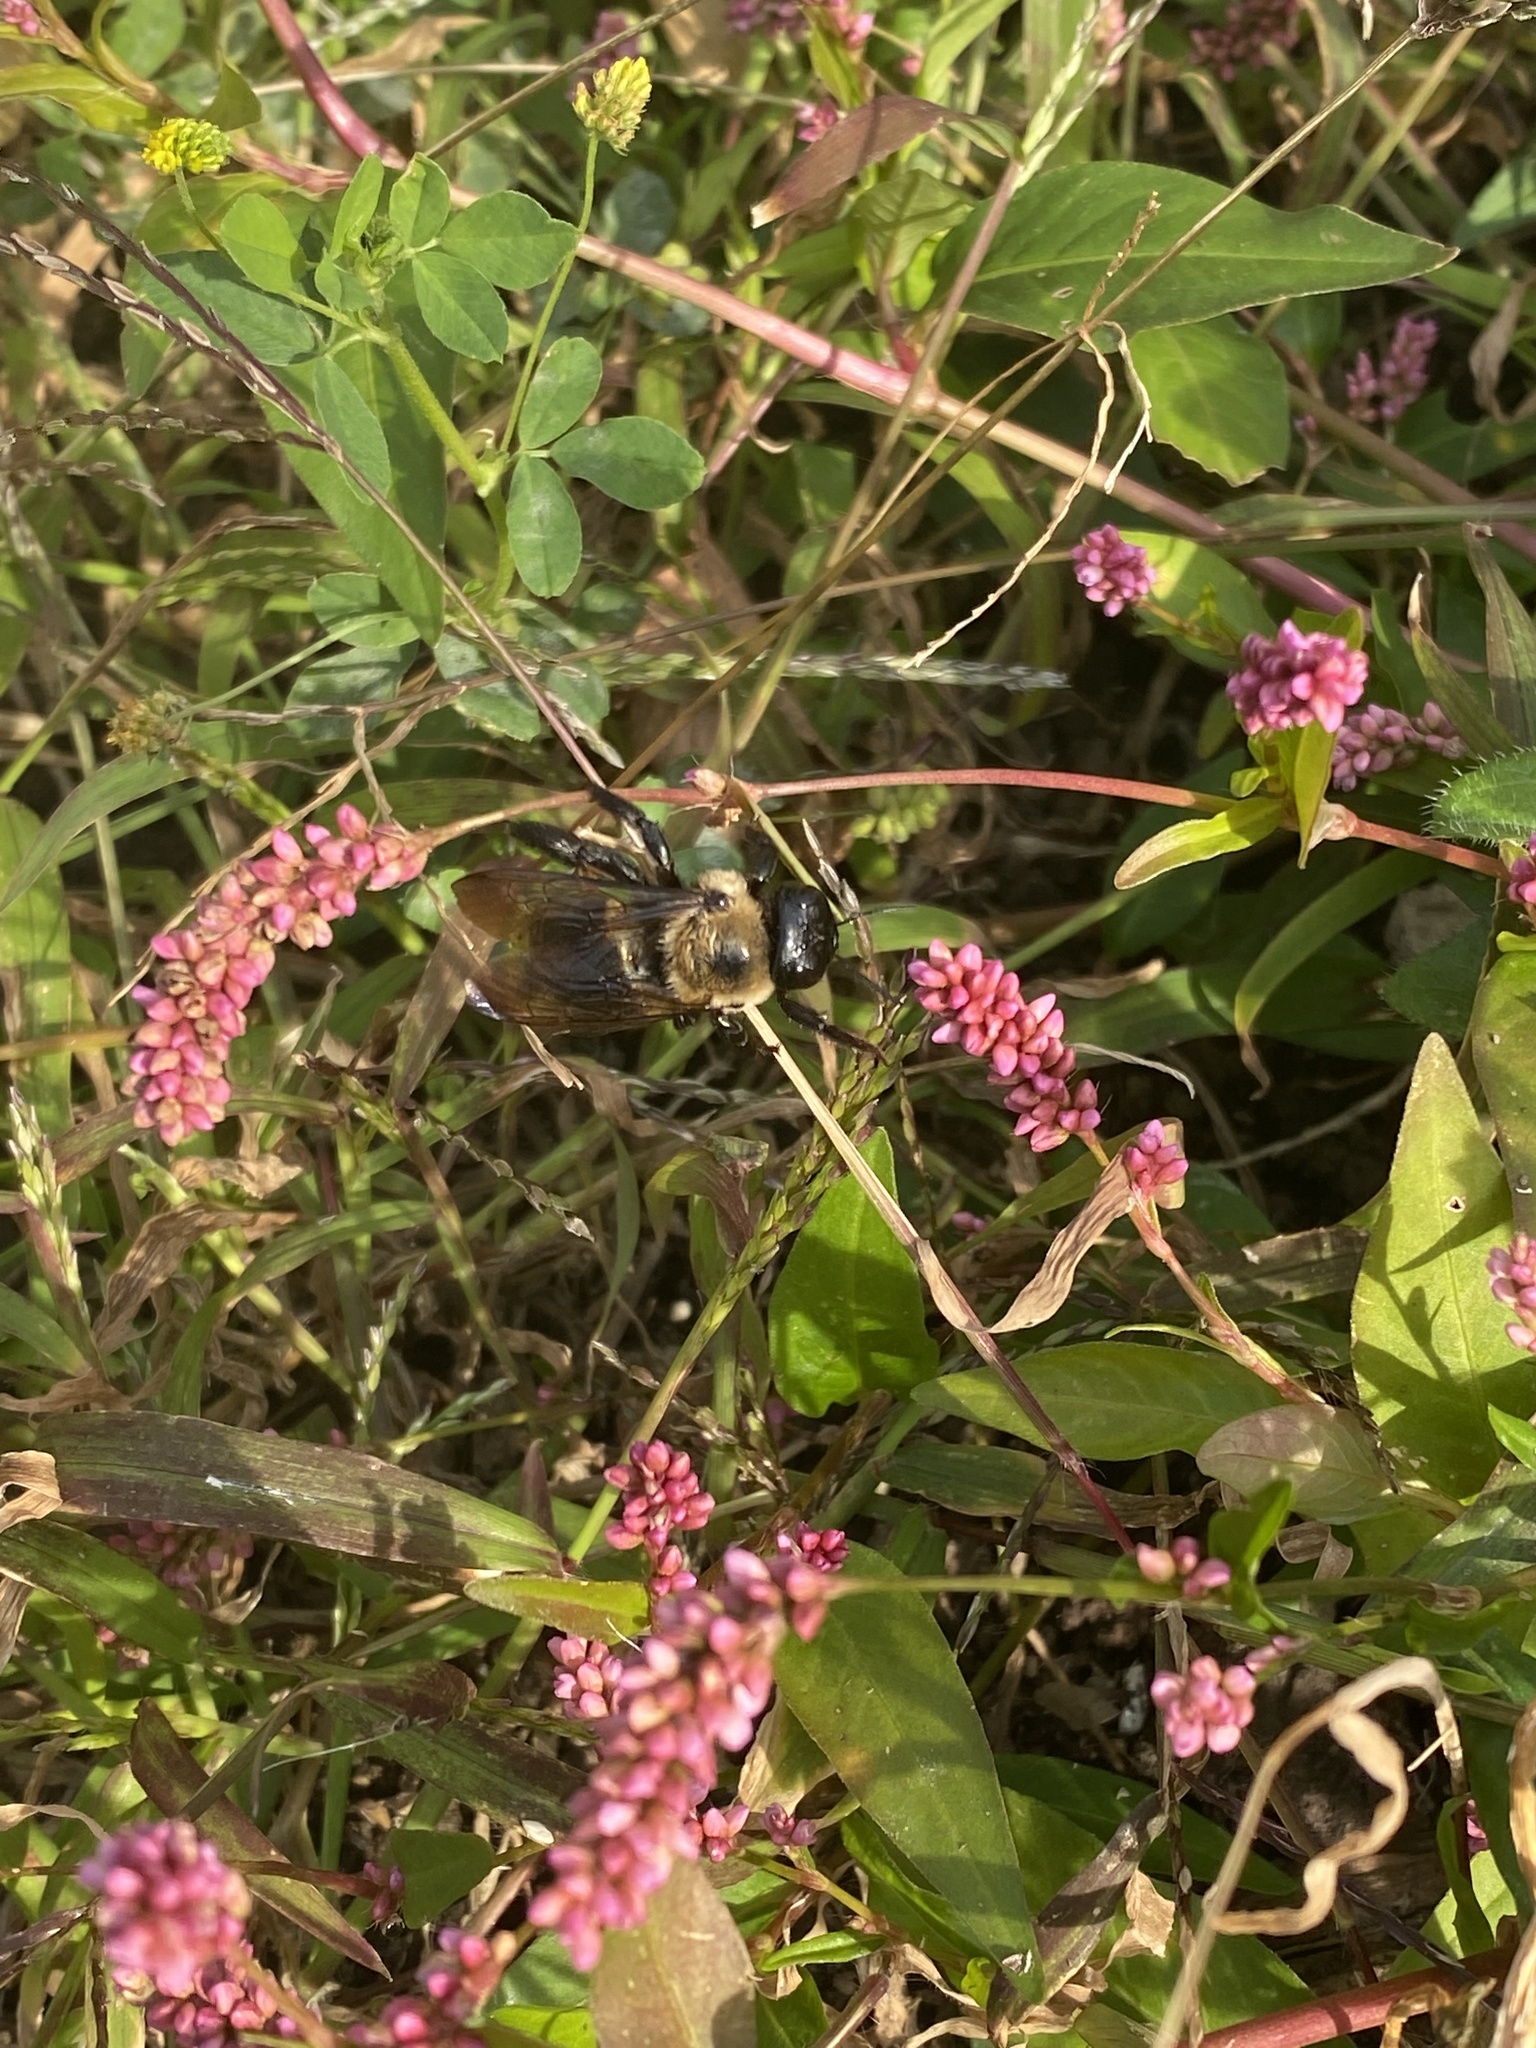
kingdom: Animalia
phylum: Arthropoda
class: Insecta
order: Hymenoptera
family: Apidae
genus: Xylocopa
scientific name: Xylocopa virginica
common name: Carpenter bee
